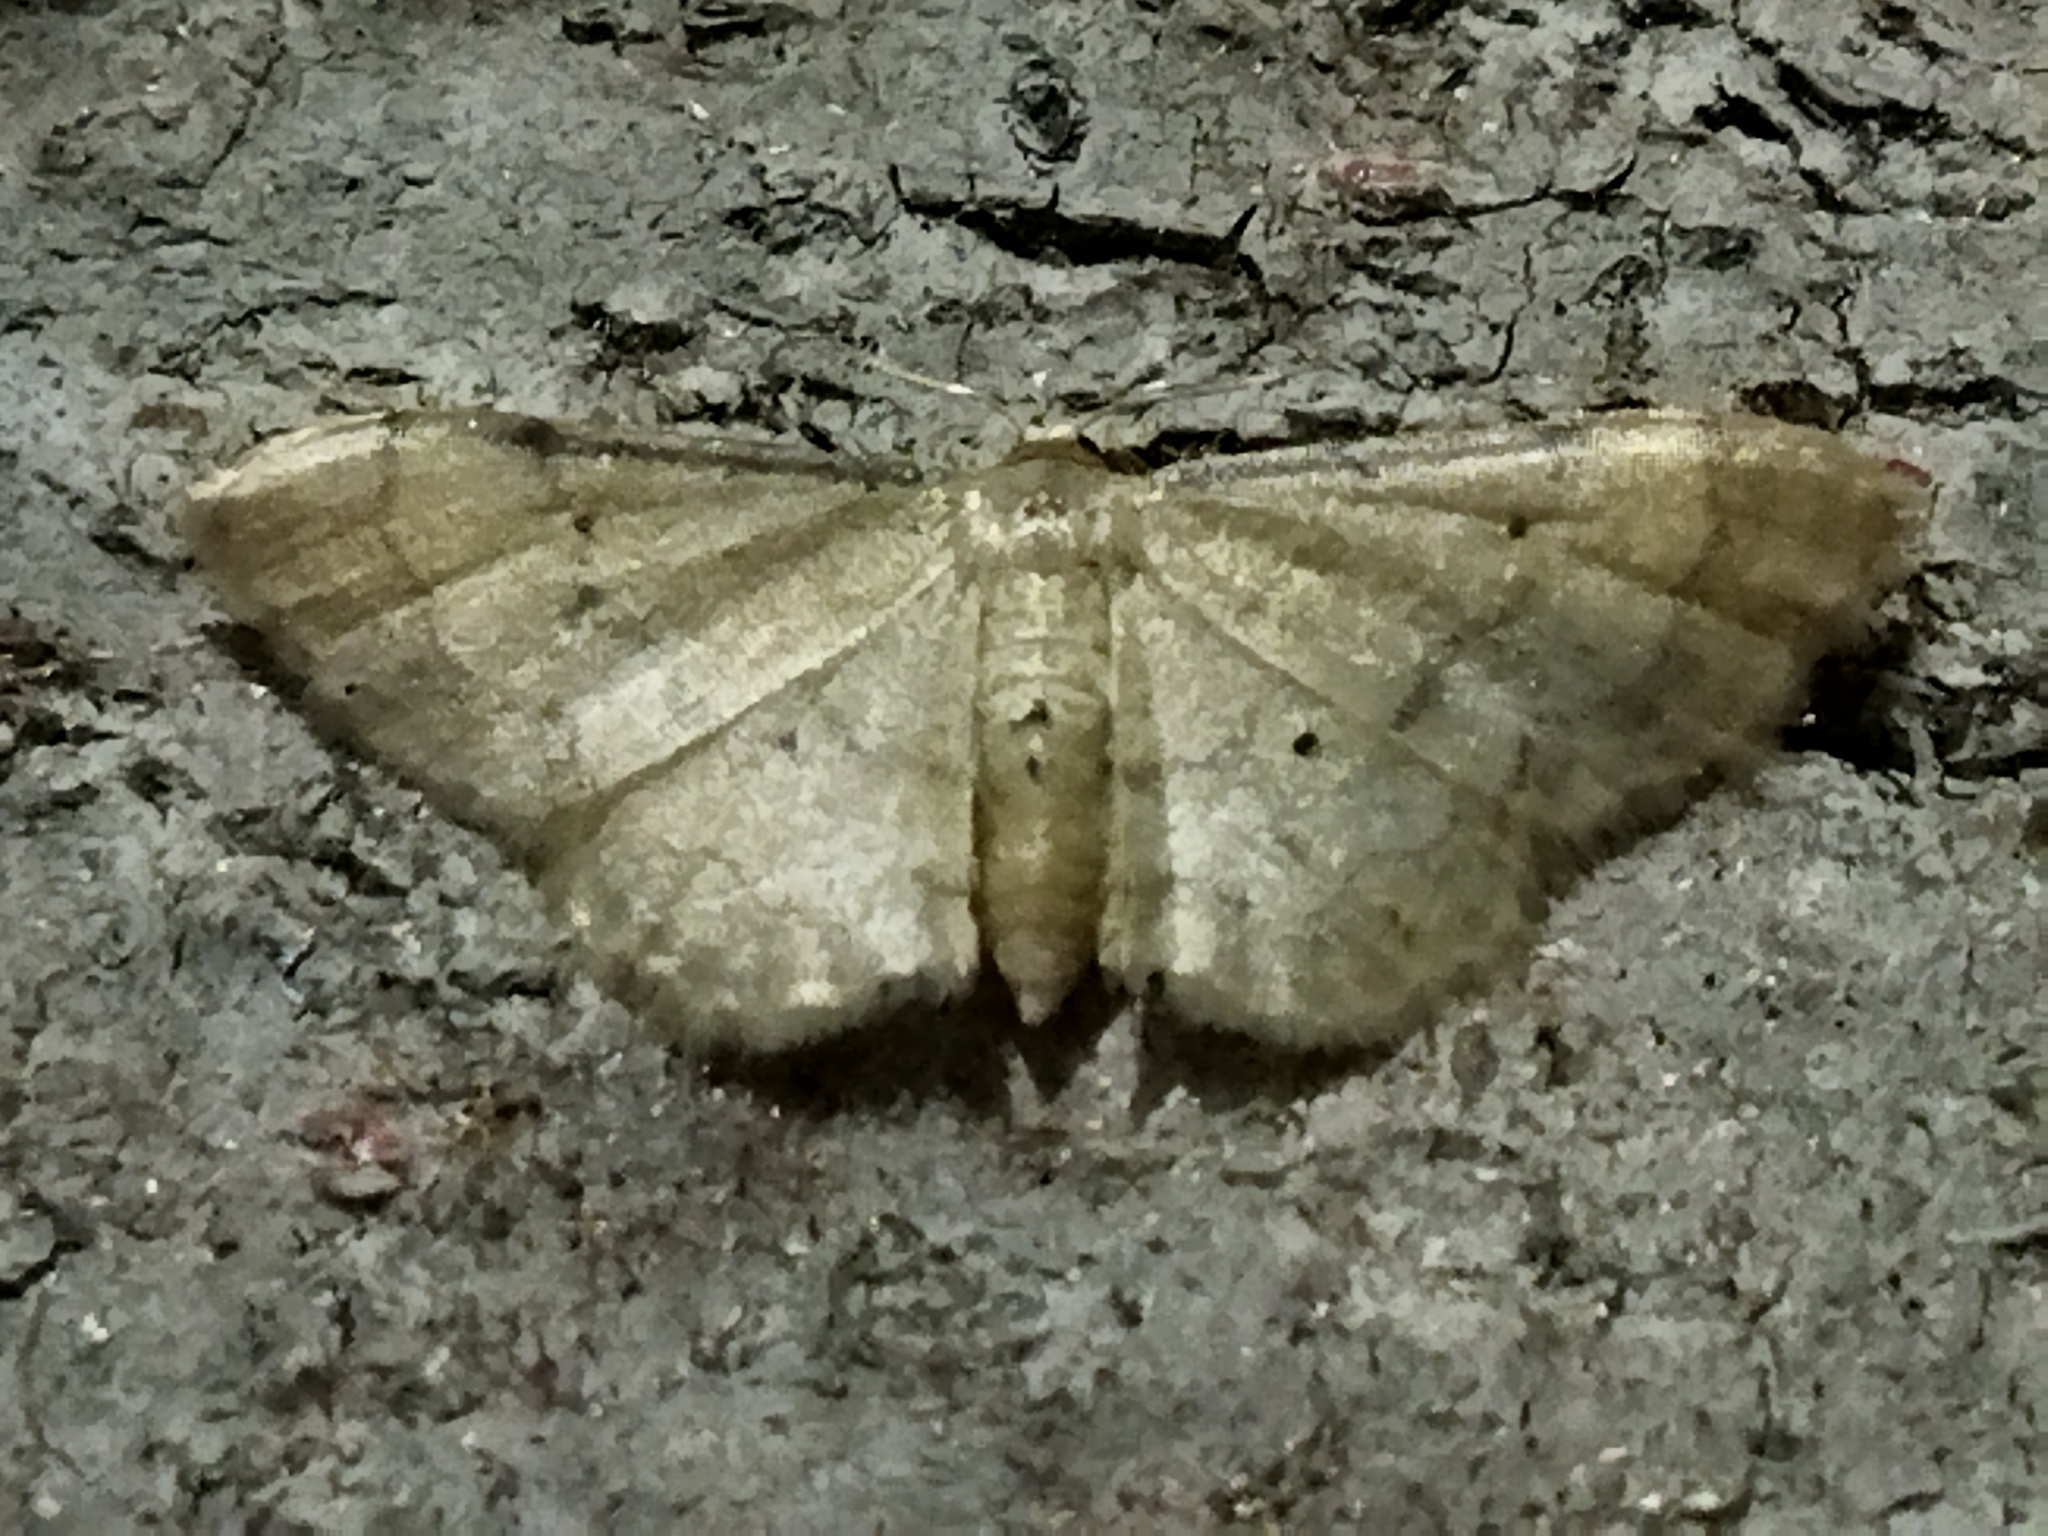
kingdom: Animalia
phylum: Arthropoda
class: Insecta
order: Lepidoptera
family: Geometridae
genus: Idaea
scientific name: Idaea politaria
